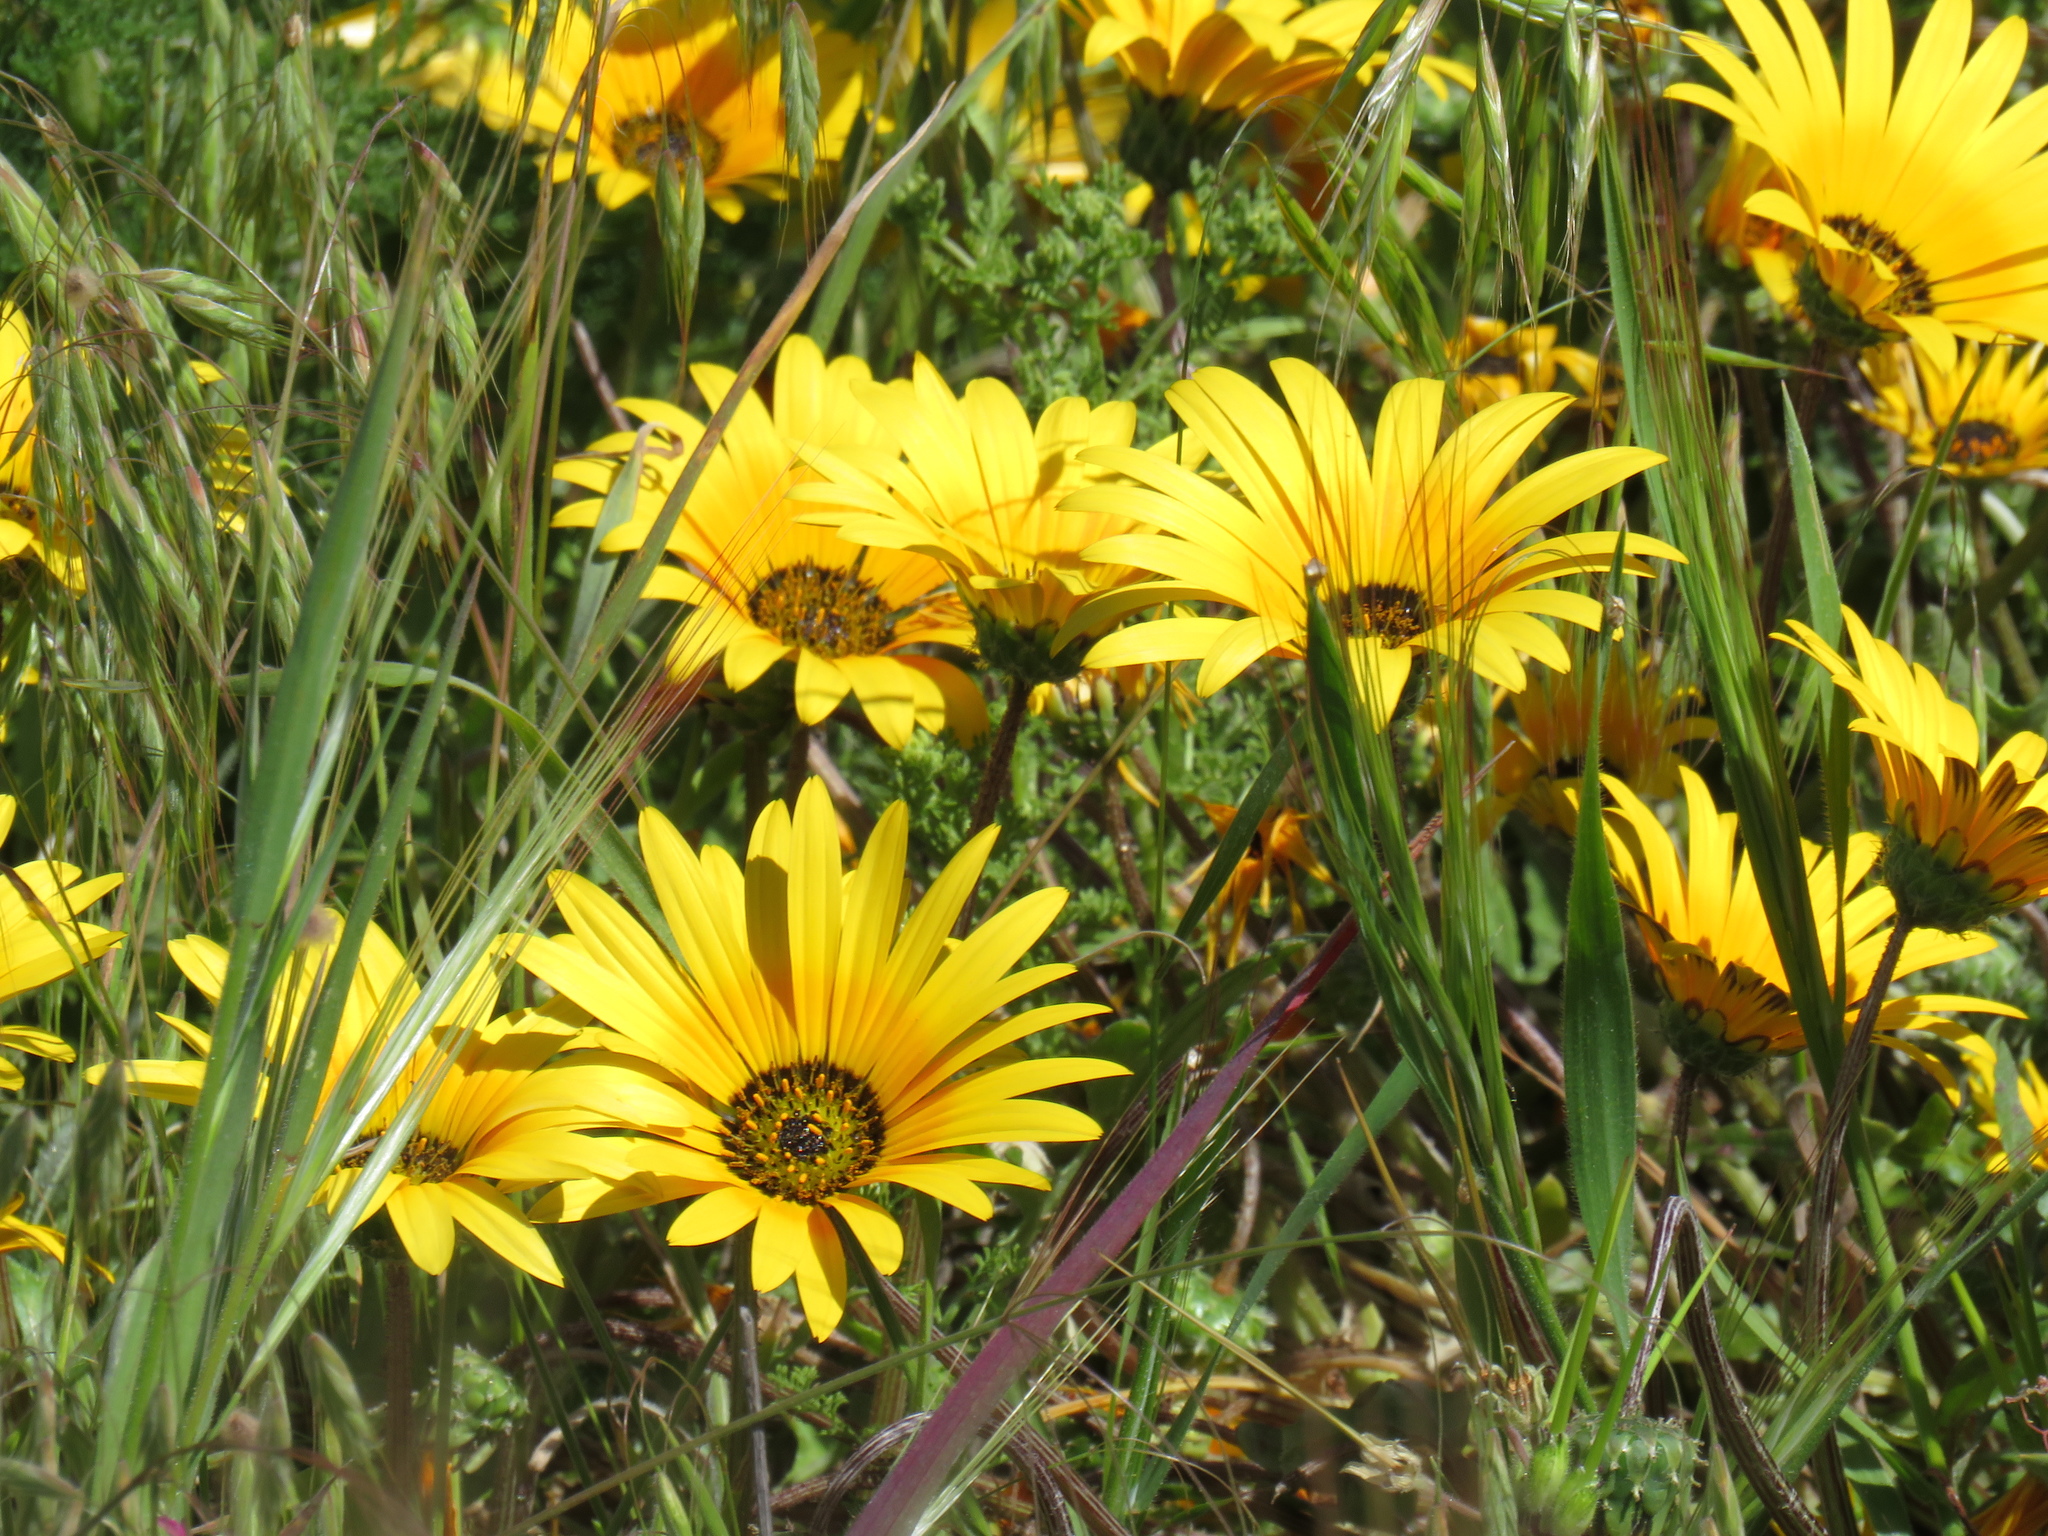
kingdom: Plantae
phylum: Tracheophyta
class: Magnoliopsida
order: Asterales
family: Asteraceae
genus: Arctotheca
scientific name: Arctotheca calendula
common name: Capeweed
